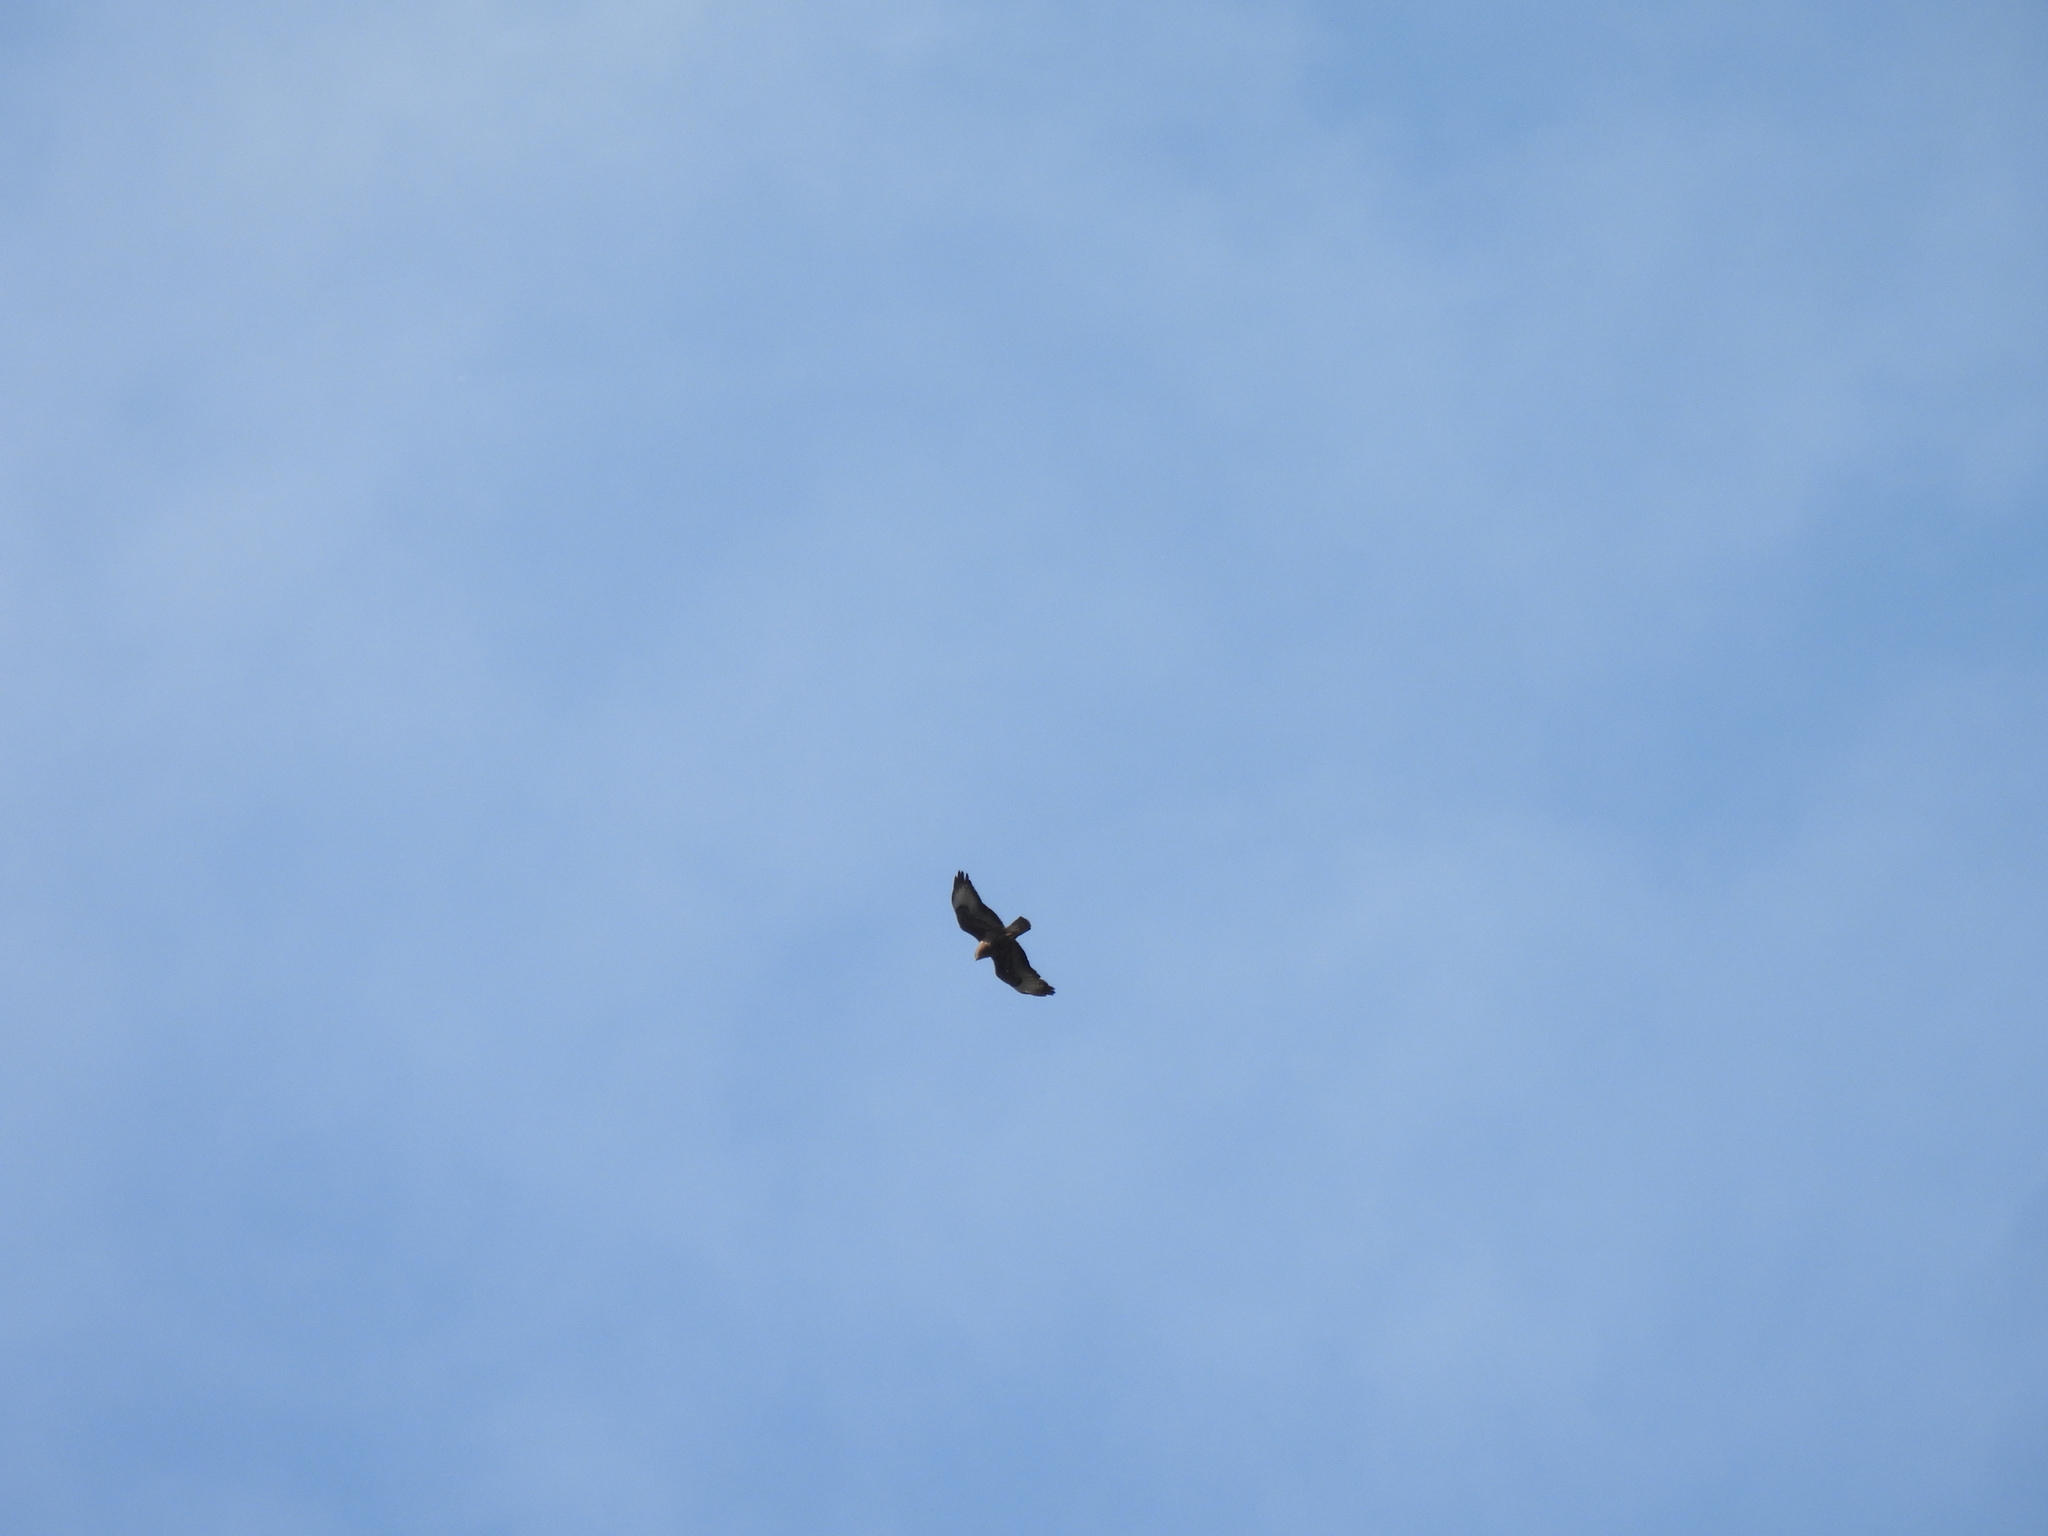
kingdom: Animalia
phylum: Chordata
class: Aves
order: Accipitriformes
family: Accipitridae
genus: Buteo
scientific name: Buteo buteo
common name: Common buzzard
